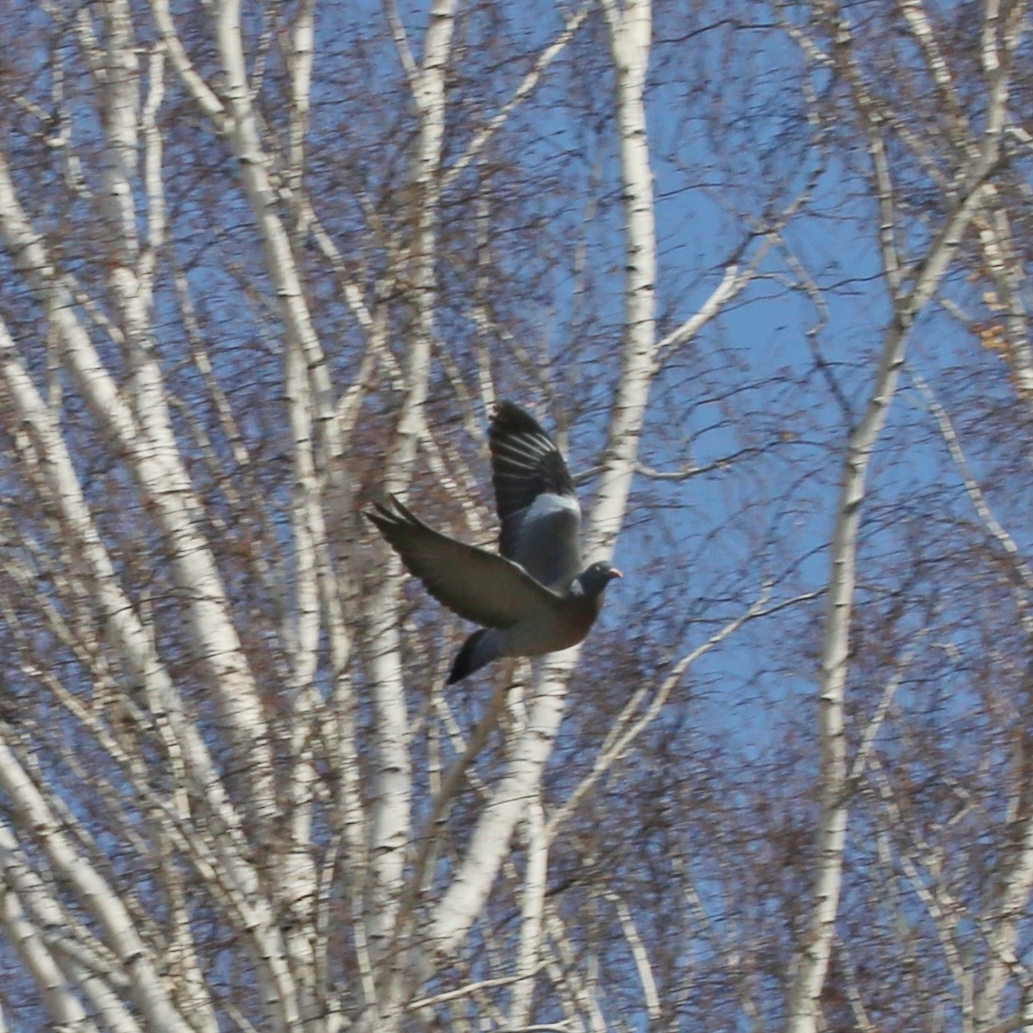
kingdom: Animalia
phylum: Chordata
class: Aves
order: Columbiformes
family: Columbidae
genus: Columba
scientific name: Columba palumbus
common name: Common wood pigeon
